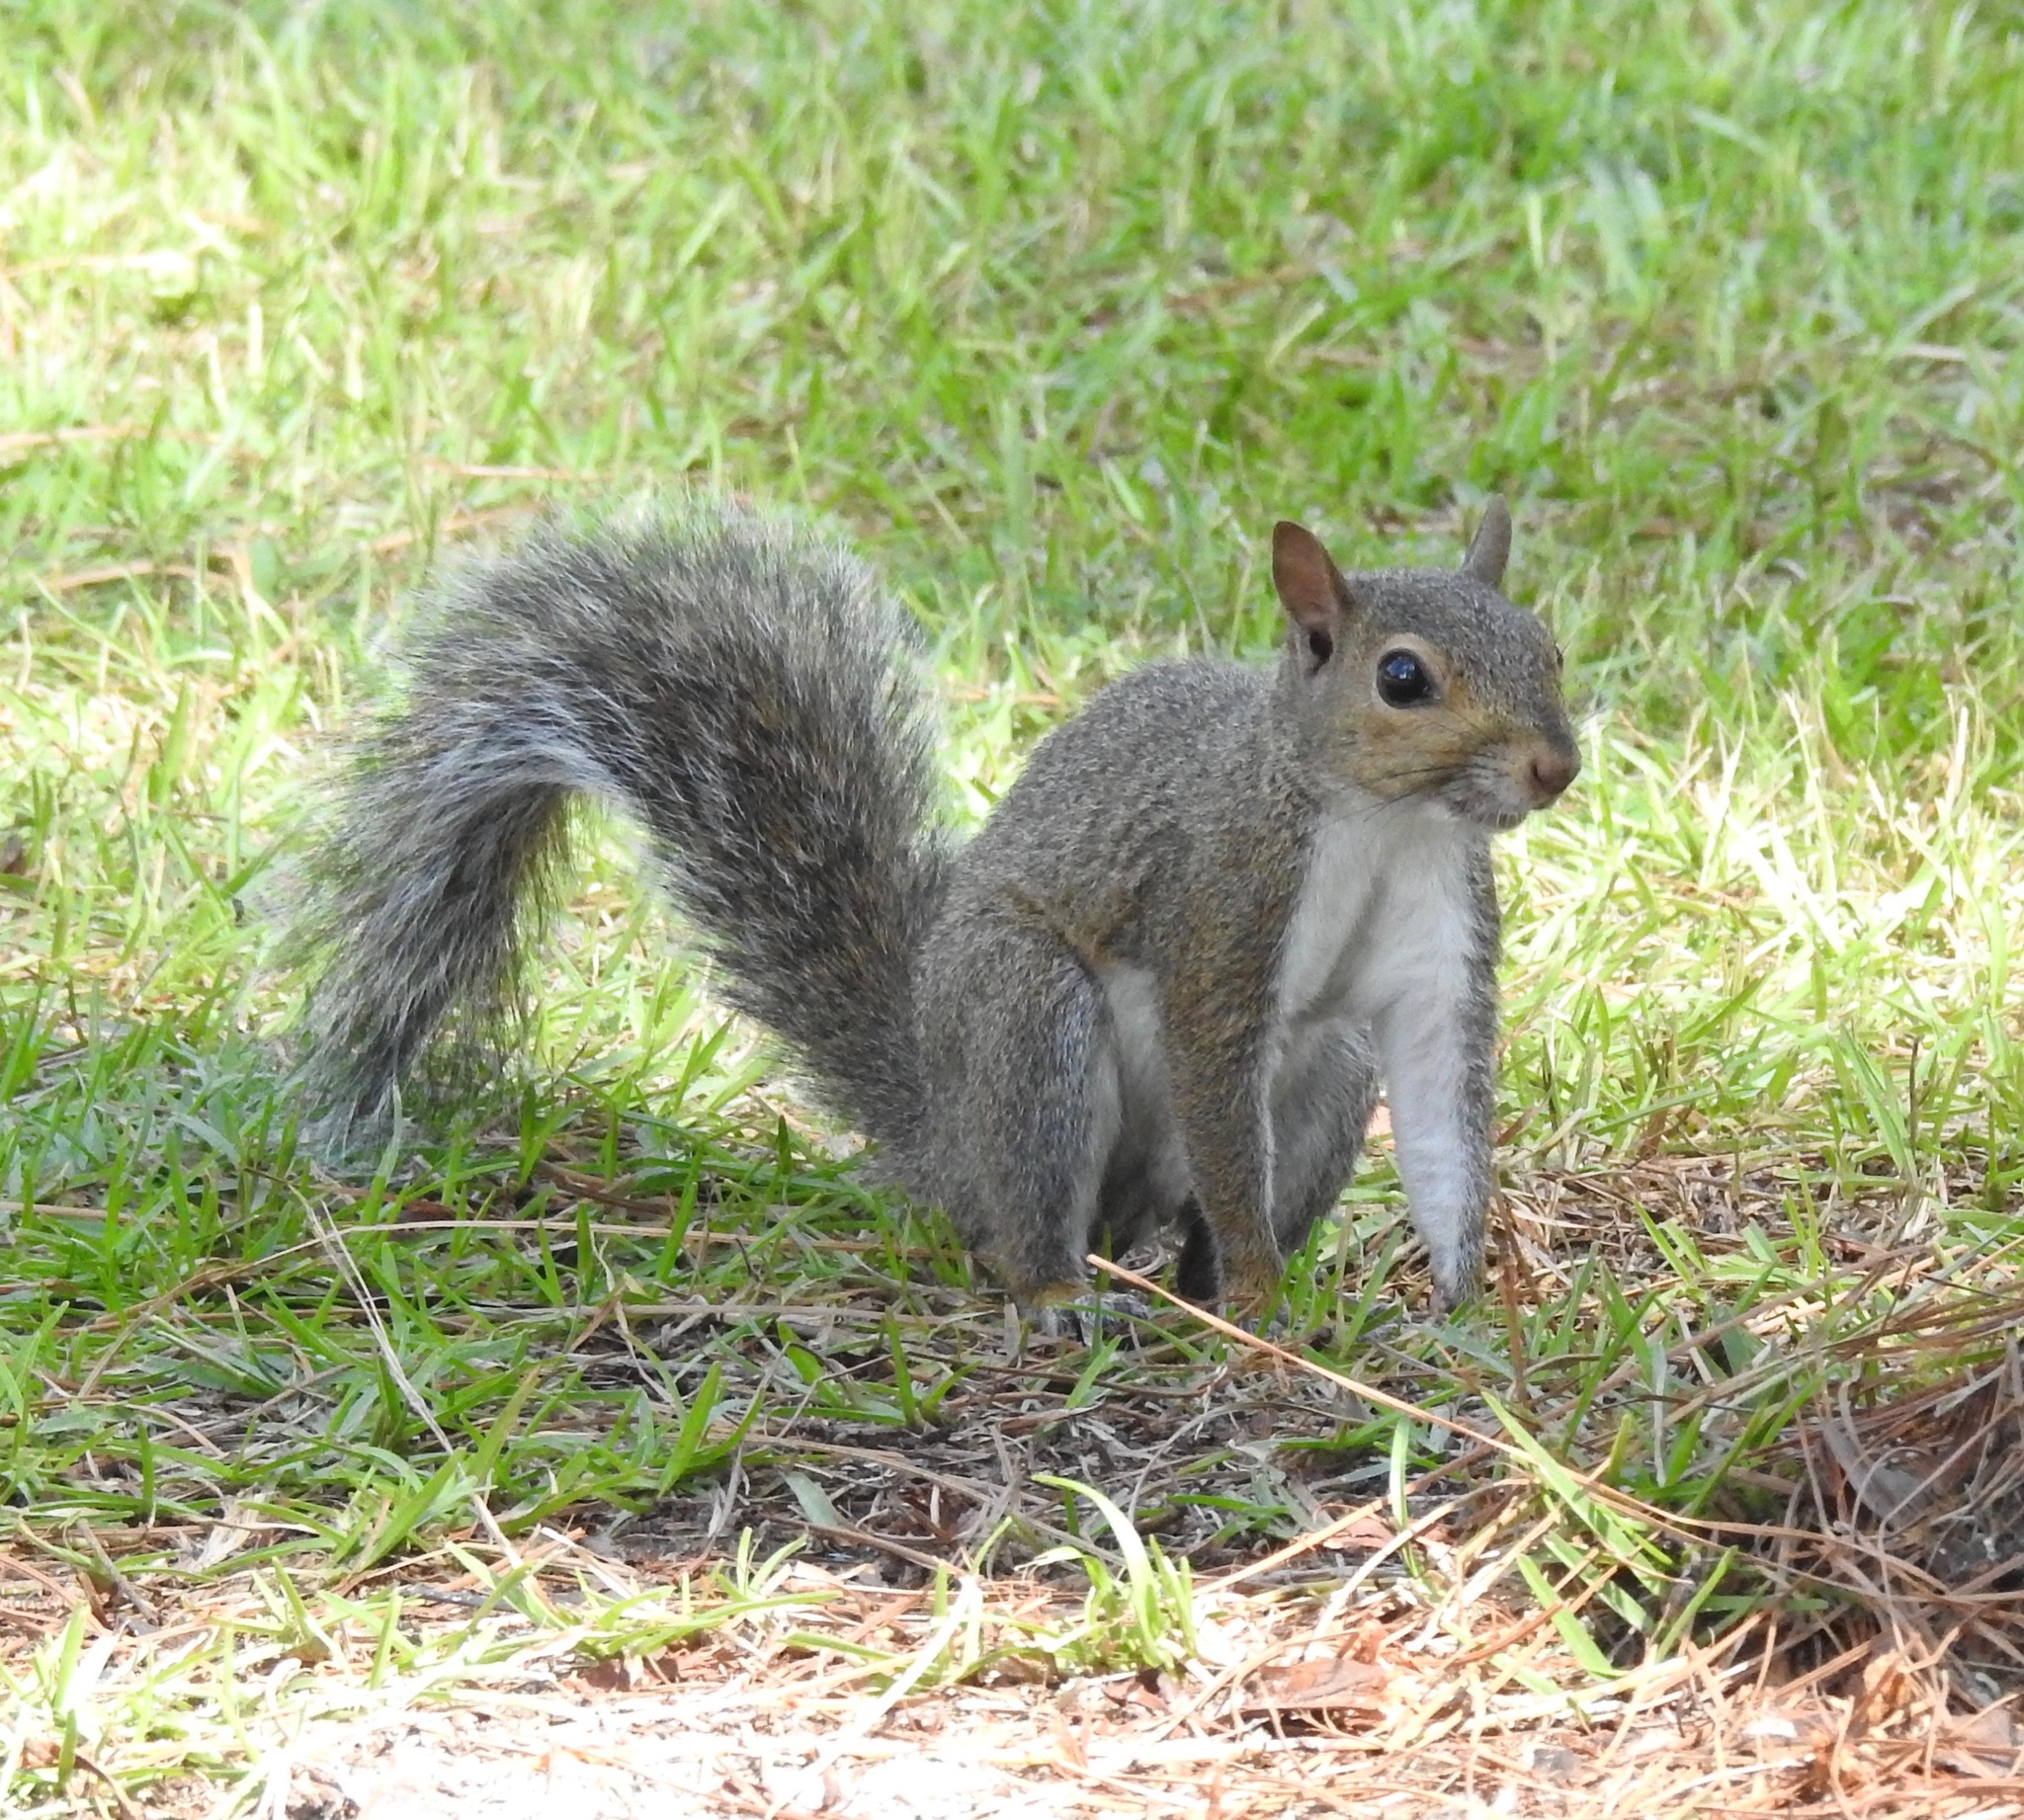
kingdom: Animalia
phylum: Chordata
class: Mammalia
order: Rodentia
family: Sciuridae
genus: Sciurus
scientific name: Sciurus carolinensis
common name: Eastern gray squirrel
